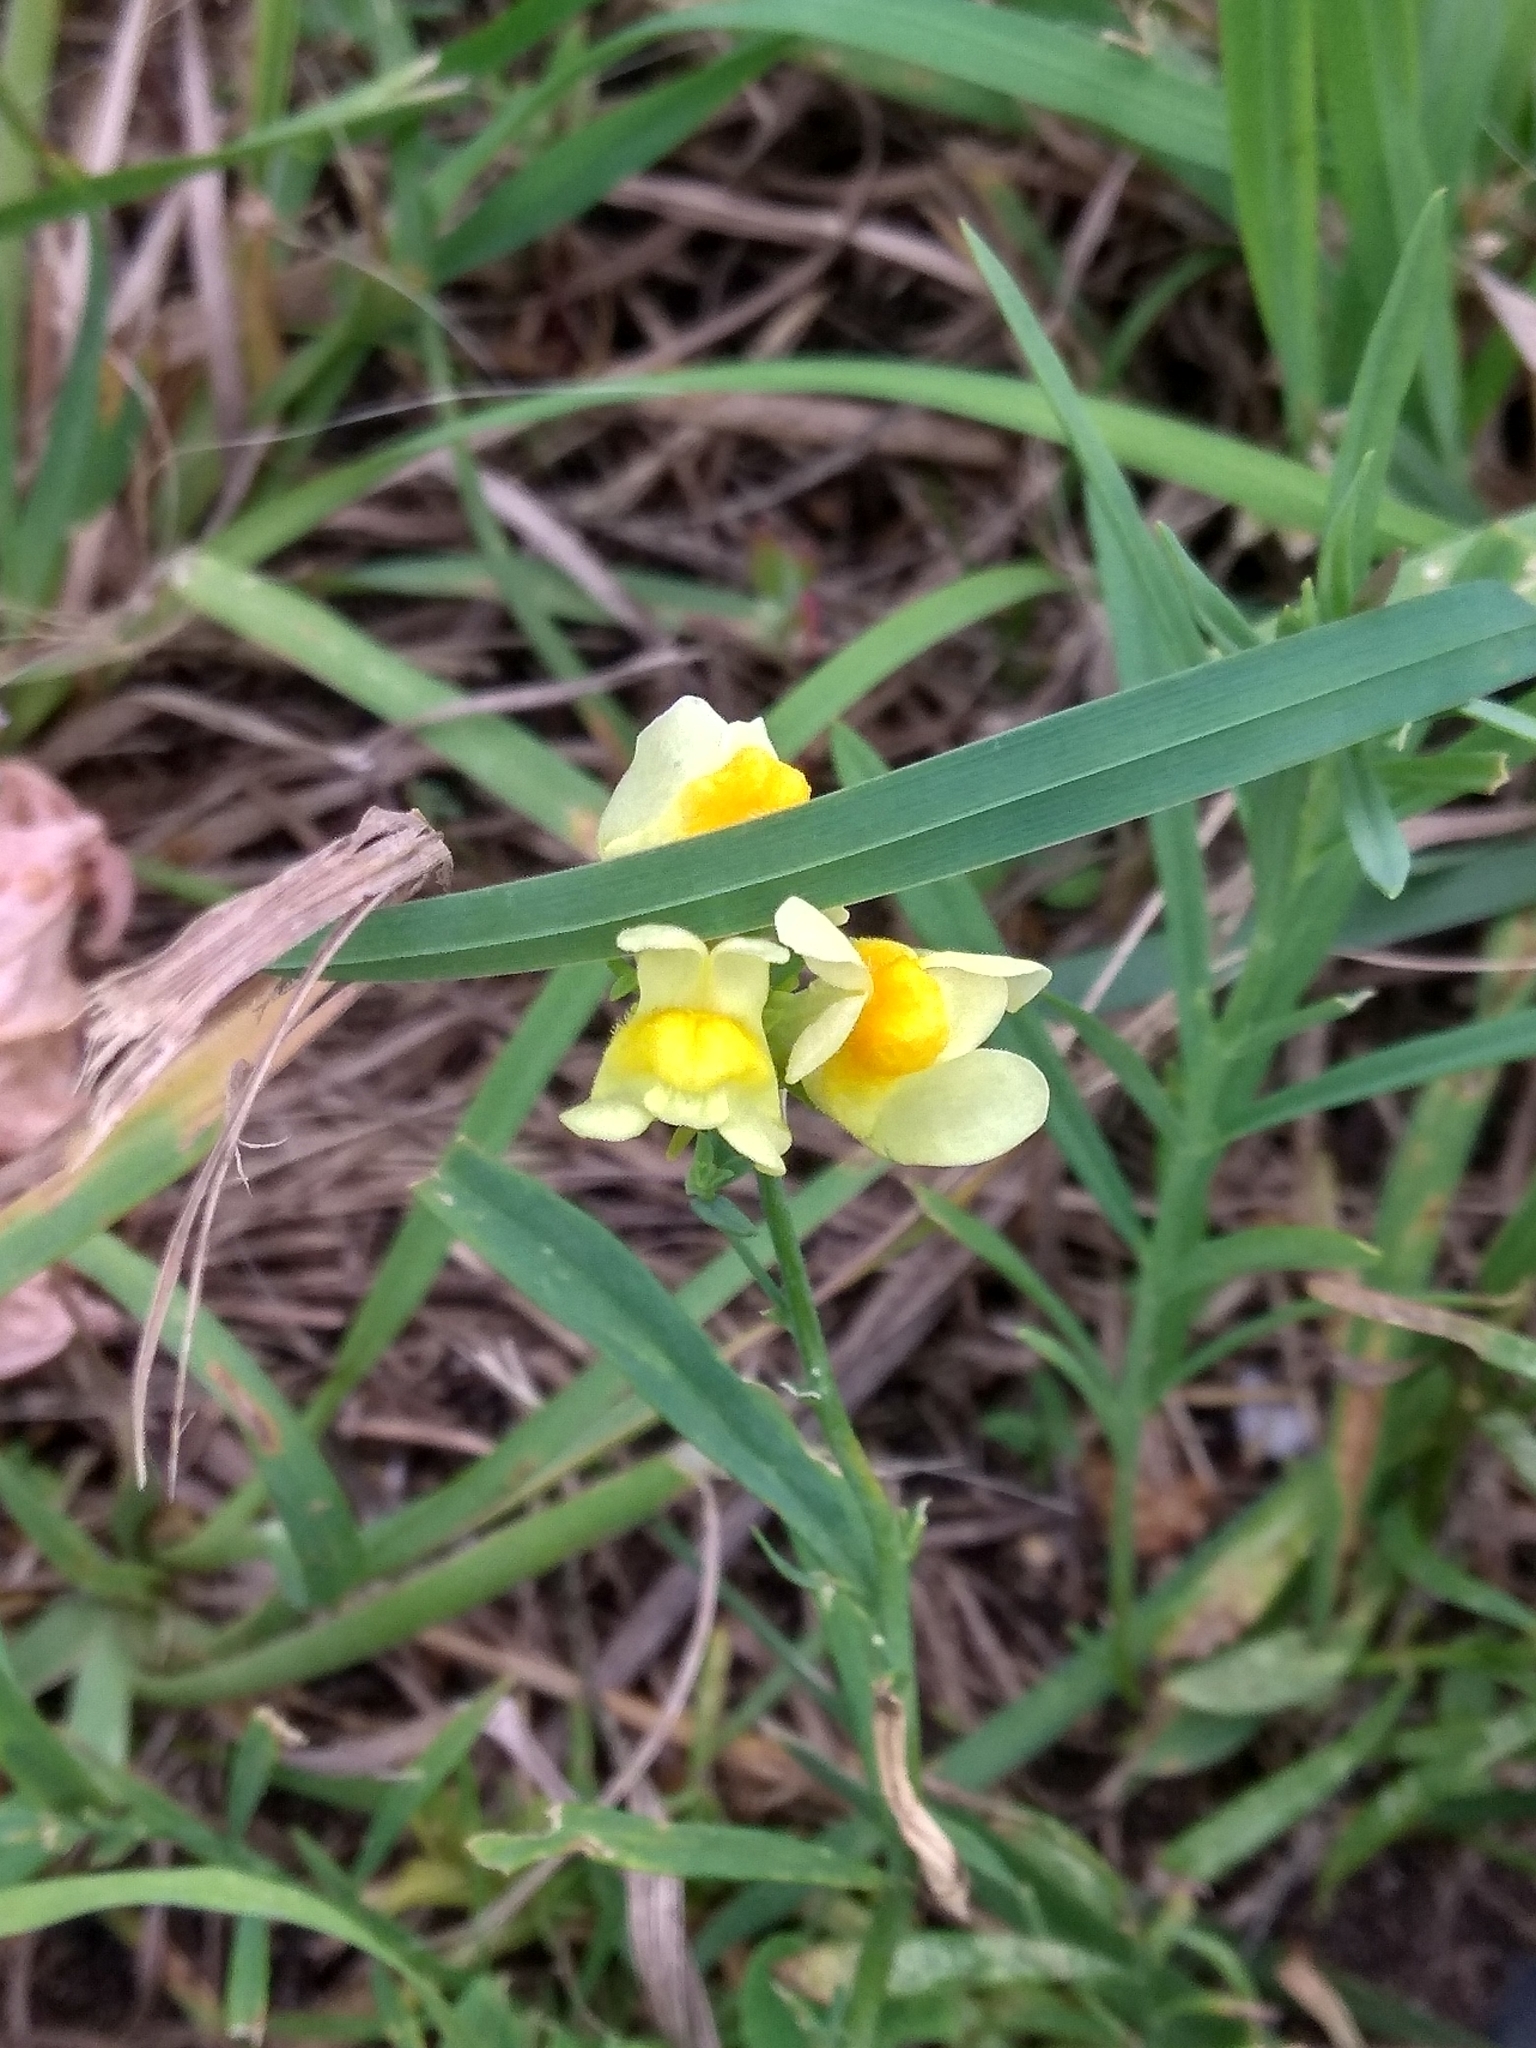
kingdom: Plantae
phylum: Tracheophyta
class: Magnoliopsida
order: Lamiales
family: Plantaginaceae
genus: Linaria
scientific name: Linaria vulgaris
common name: Butter and eggs
